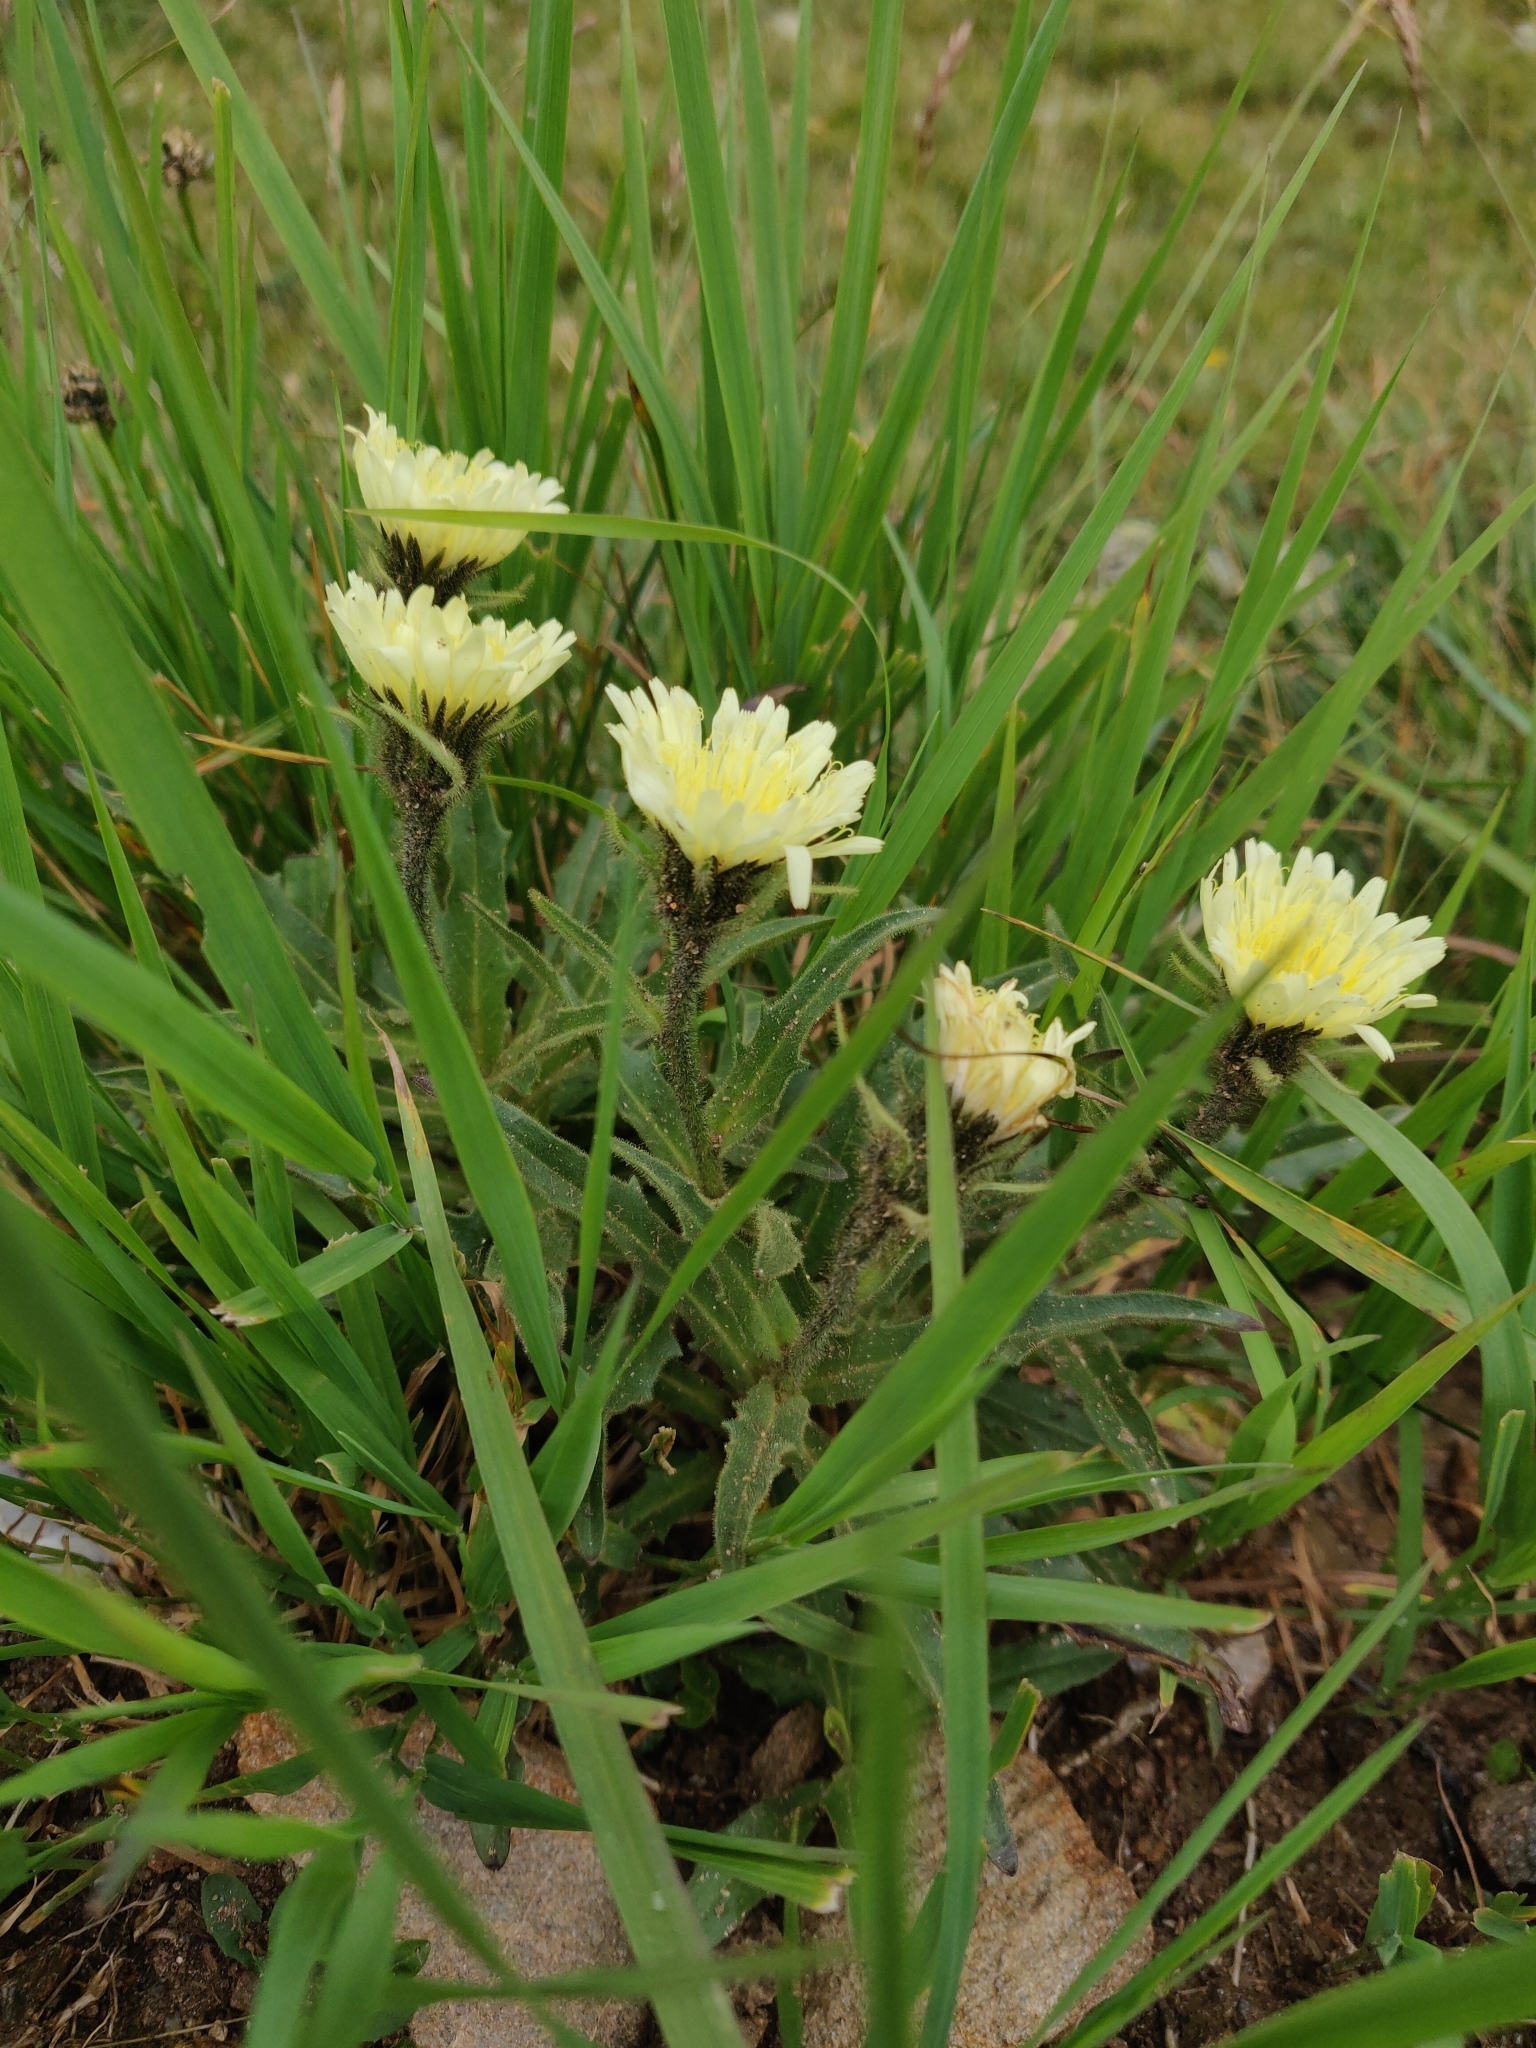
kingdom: Plantae
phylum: Tracheophyta
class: Magnoliopsida
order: Asterales
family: Asteraceae
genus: Schlagintweitia
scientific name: Schlagintweitia intybacea
